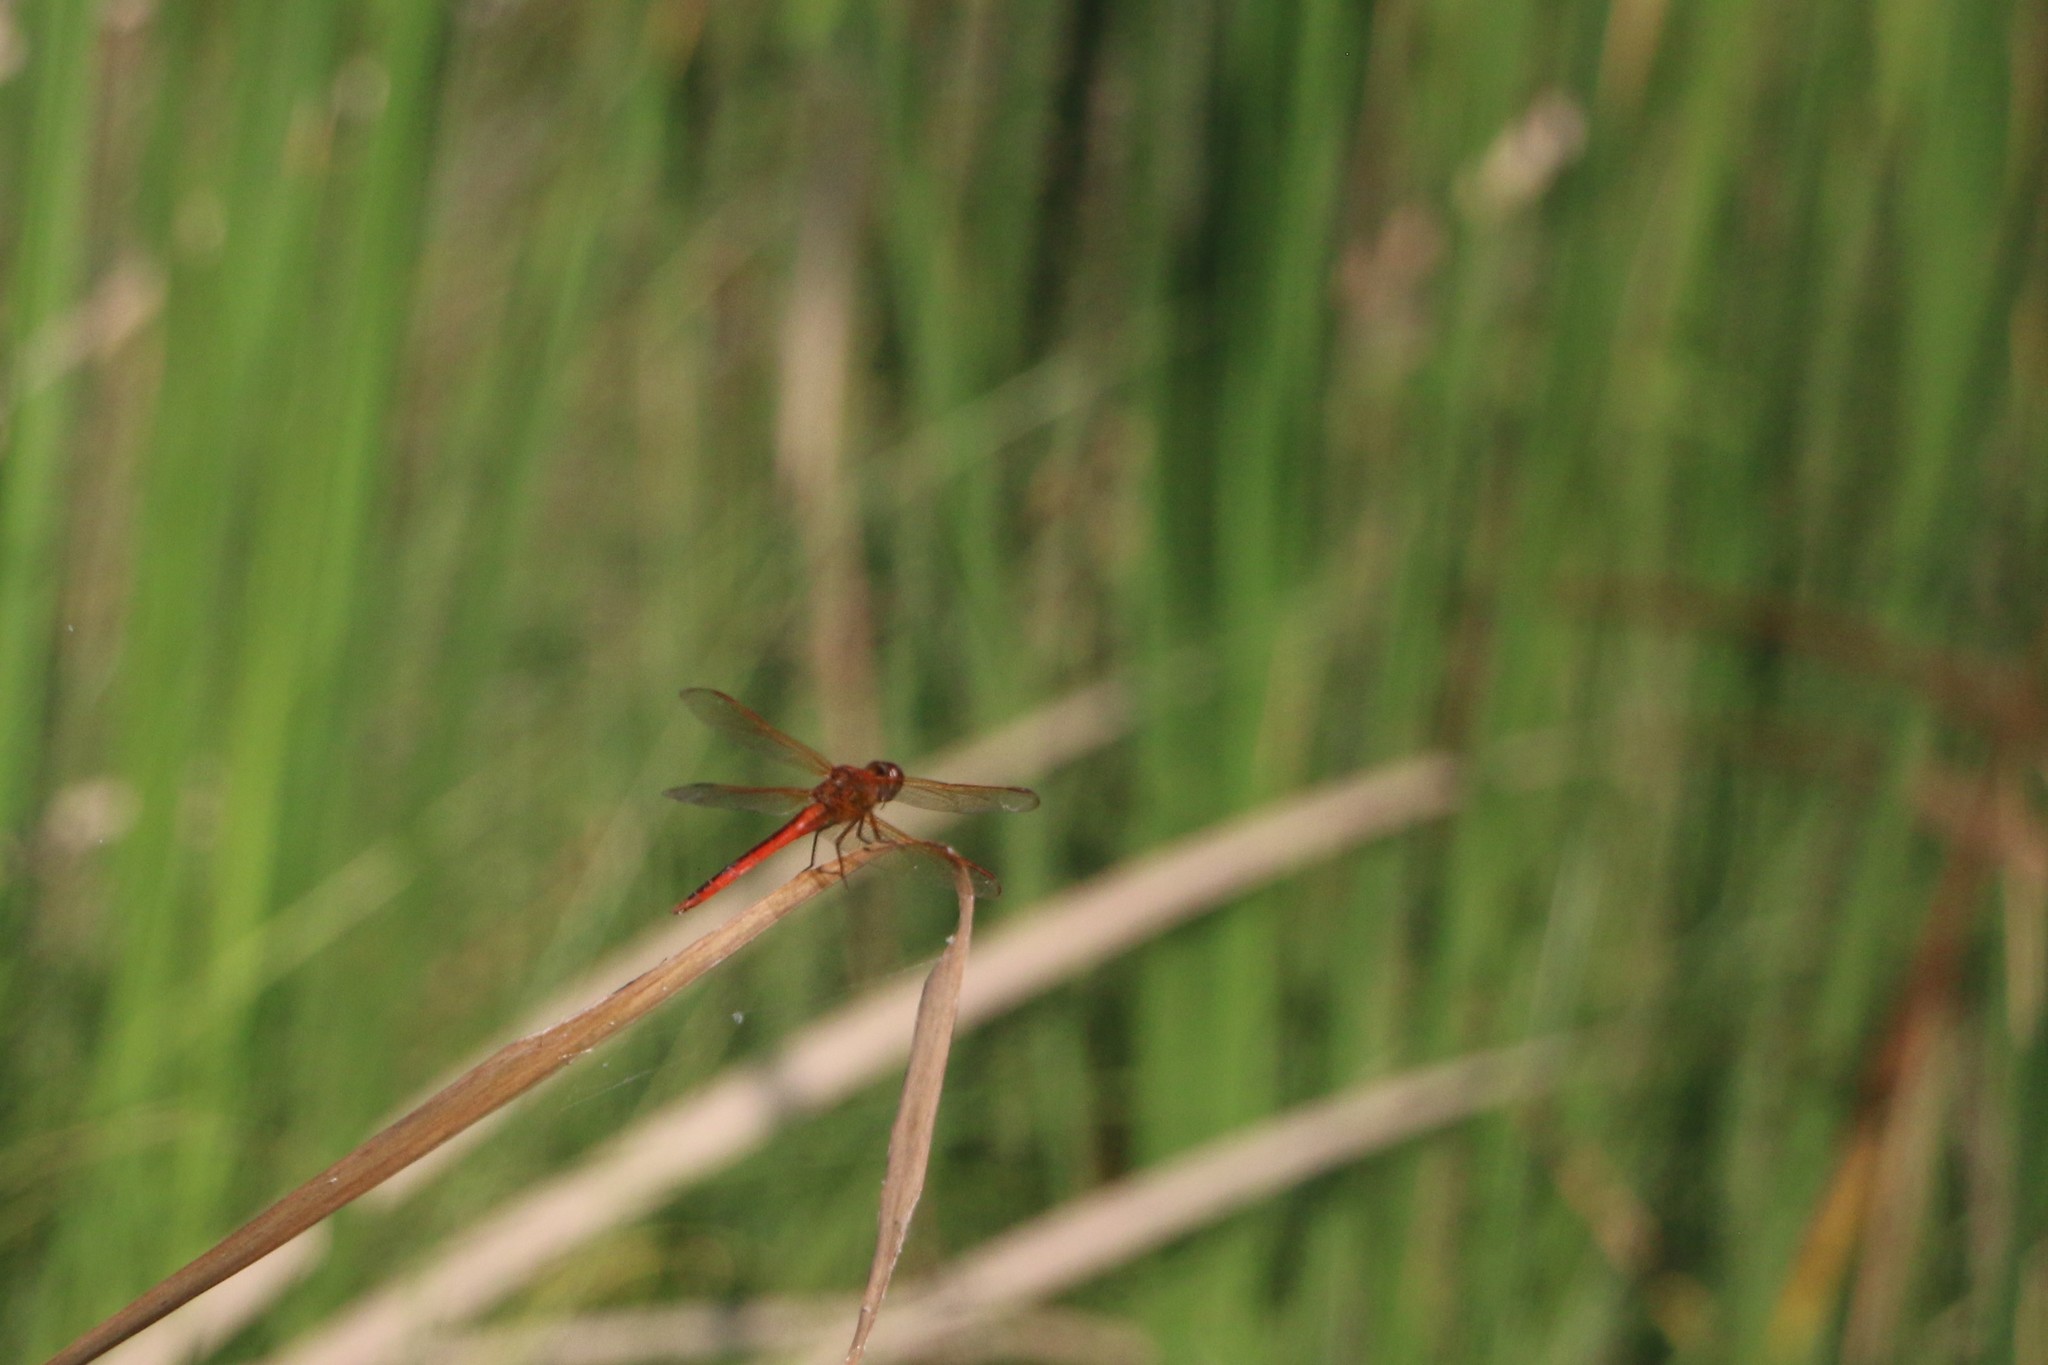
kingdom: Animalia
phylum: Arthropoda
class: Insecta
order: Odonata
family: Libellulidae
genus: Libellula
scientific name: Libellula needhami
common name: Needham's skimmer
